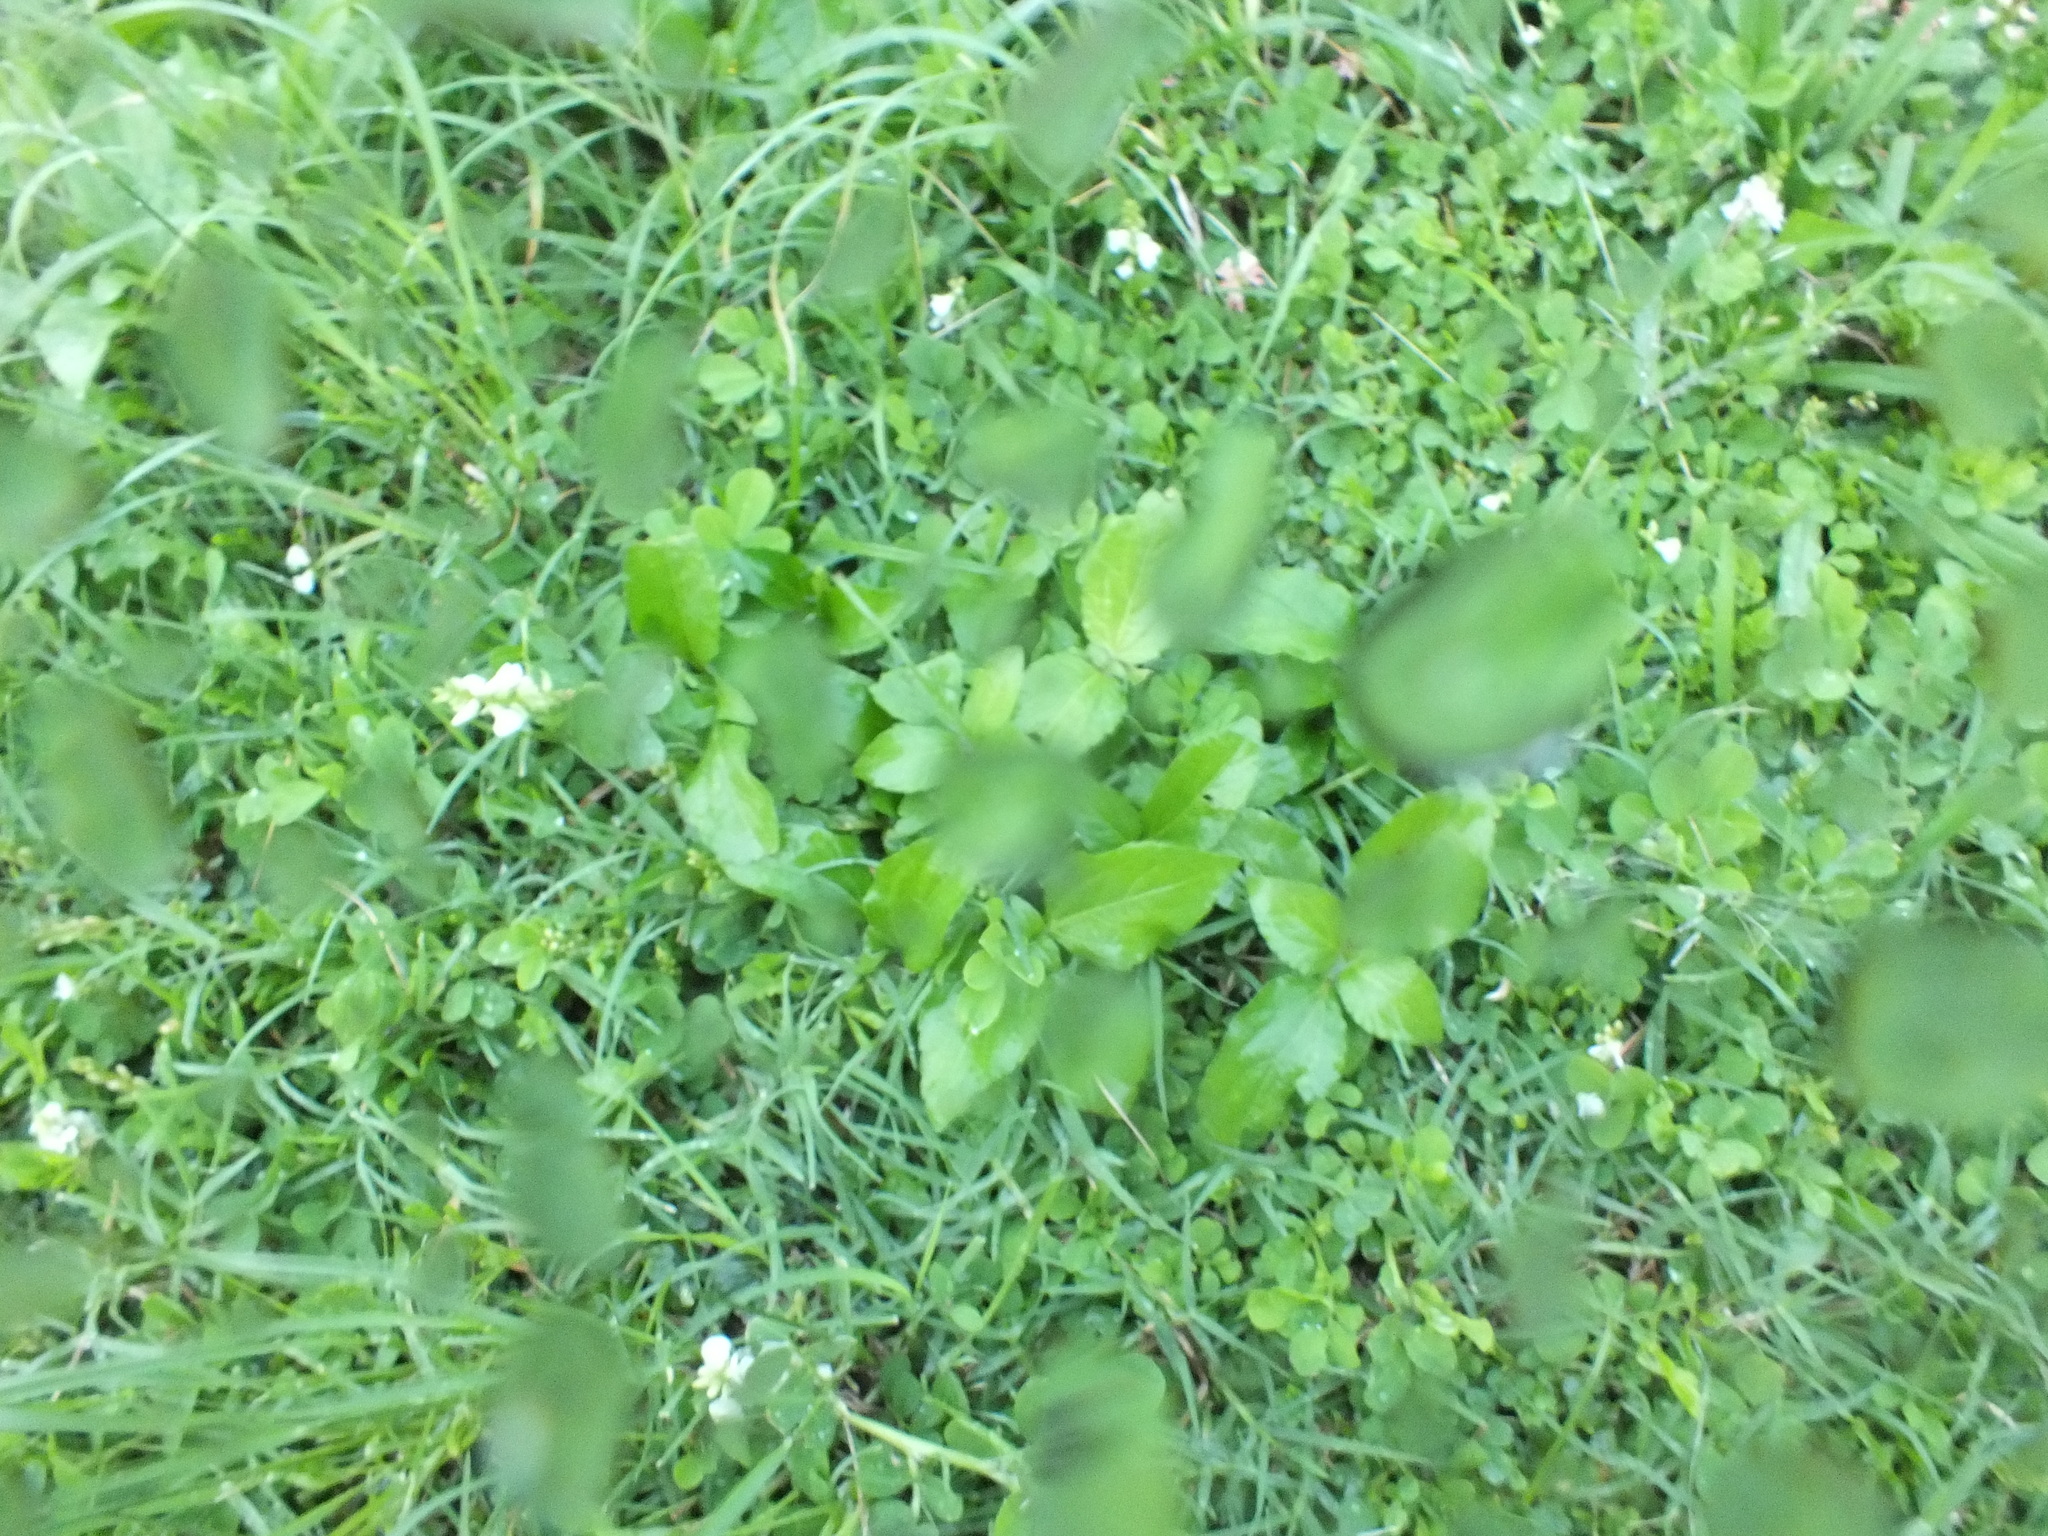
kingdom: Plantae
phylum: Tracheophyta
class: Magnoliopsida
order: Fabales
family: Fabaceae
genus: Indigofera
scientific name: Indigofera spicata
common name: Creeping indigo
